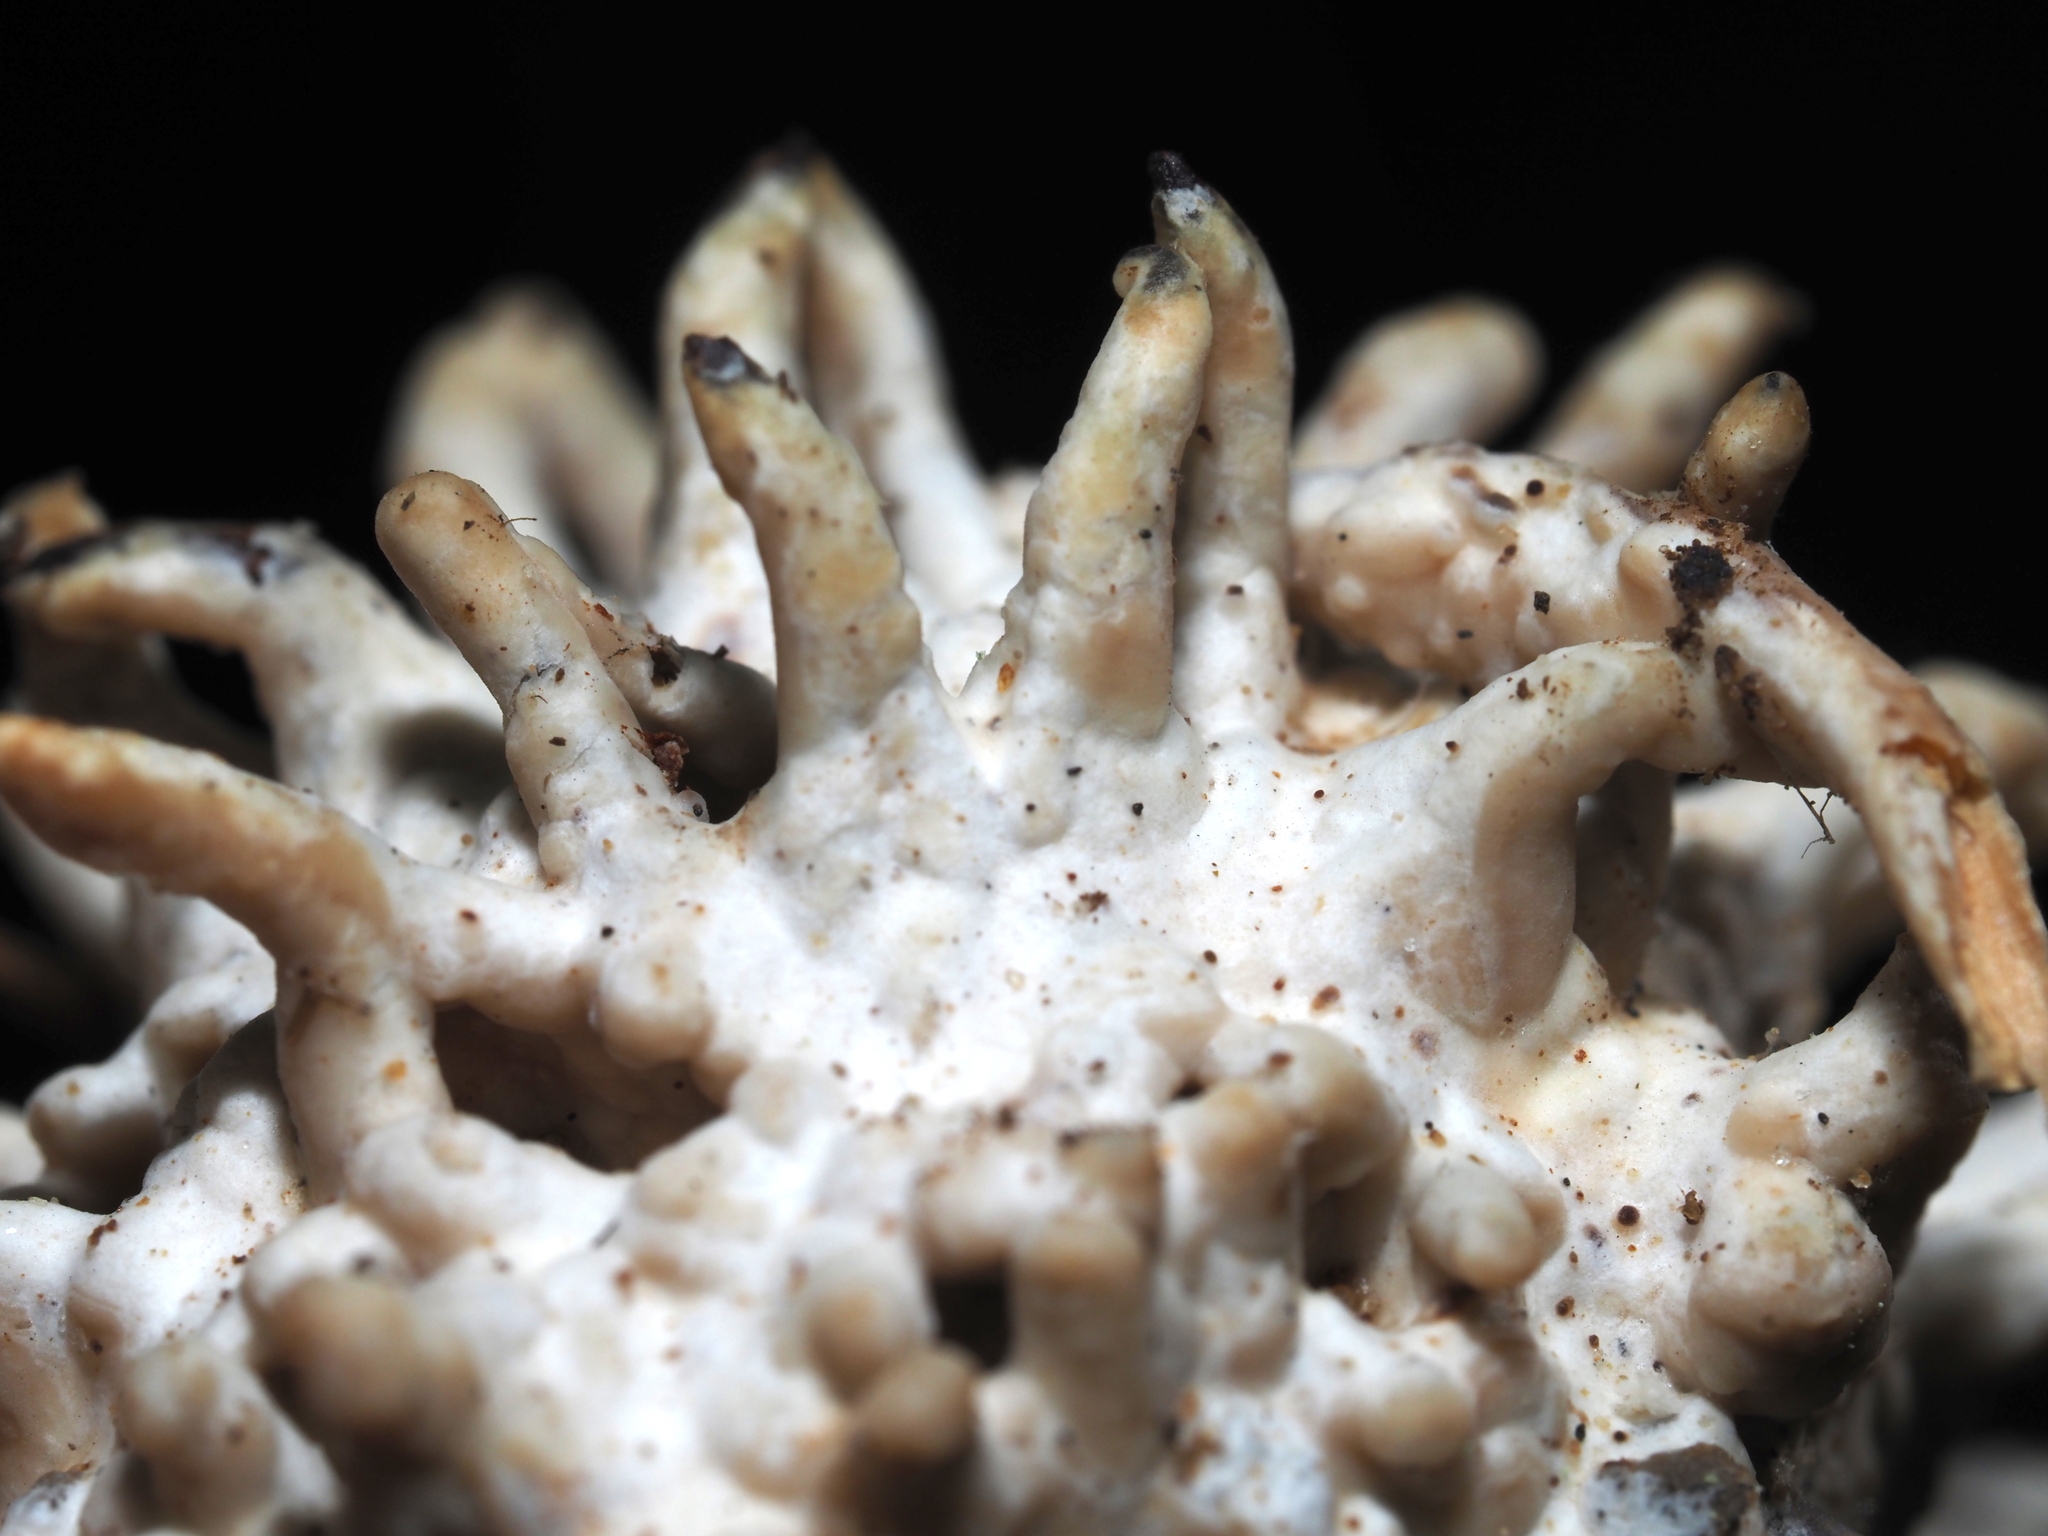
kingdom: Fungi
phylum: Basidiomycota
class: Agaricomycetes
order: Sebacinales
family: Sebacinaceae
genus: Sebacina
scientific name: Sebacina incrustans
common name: Enveloping crust
